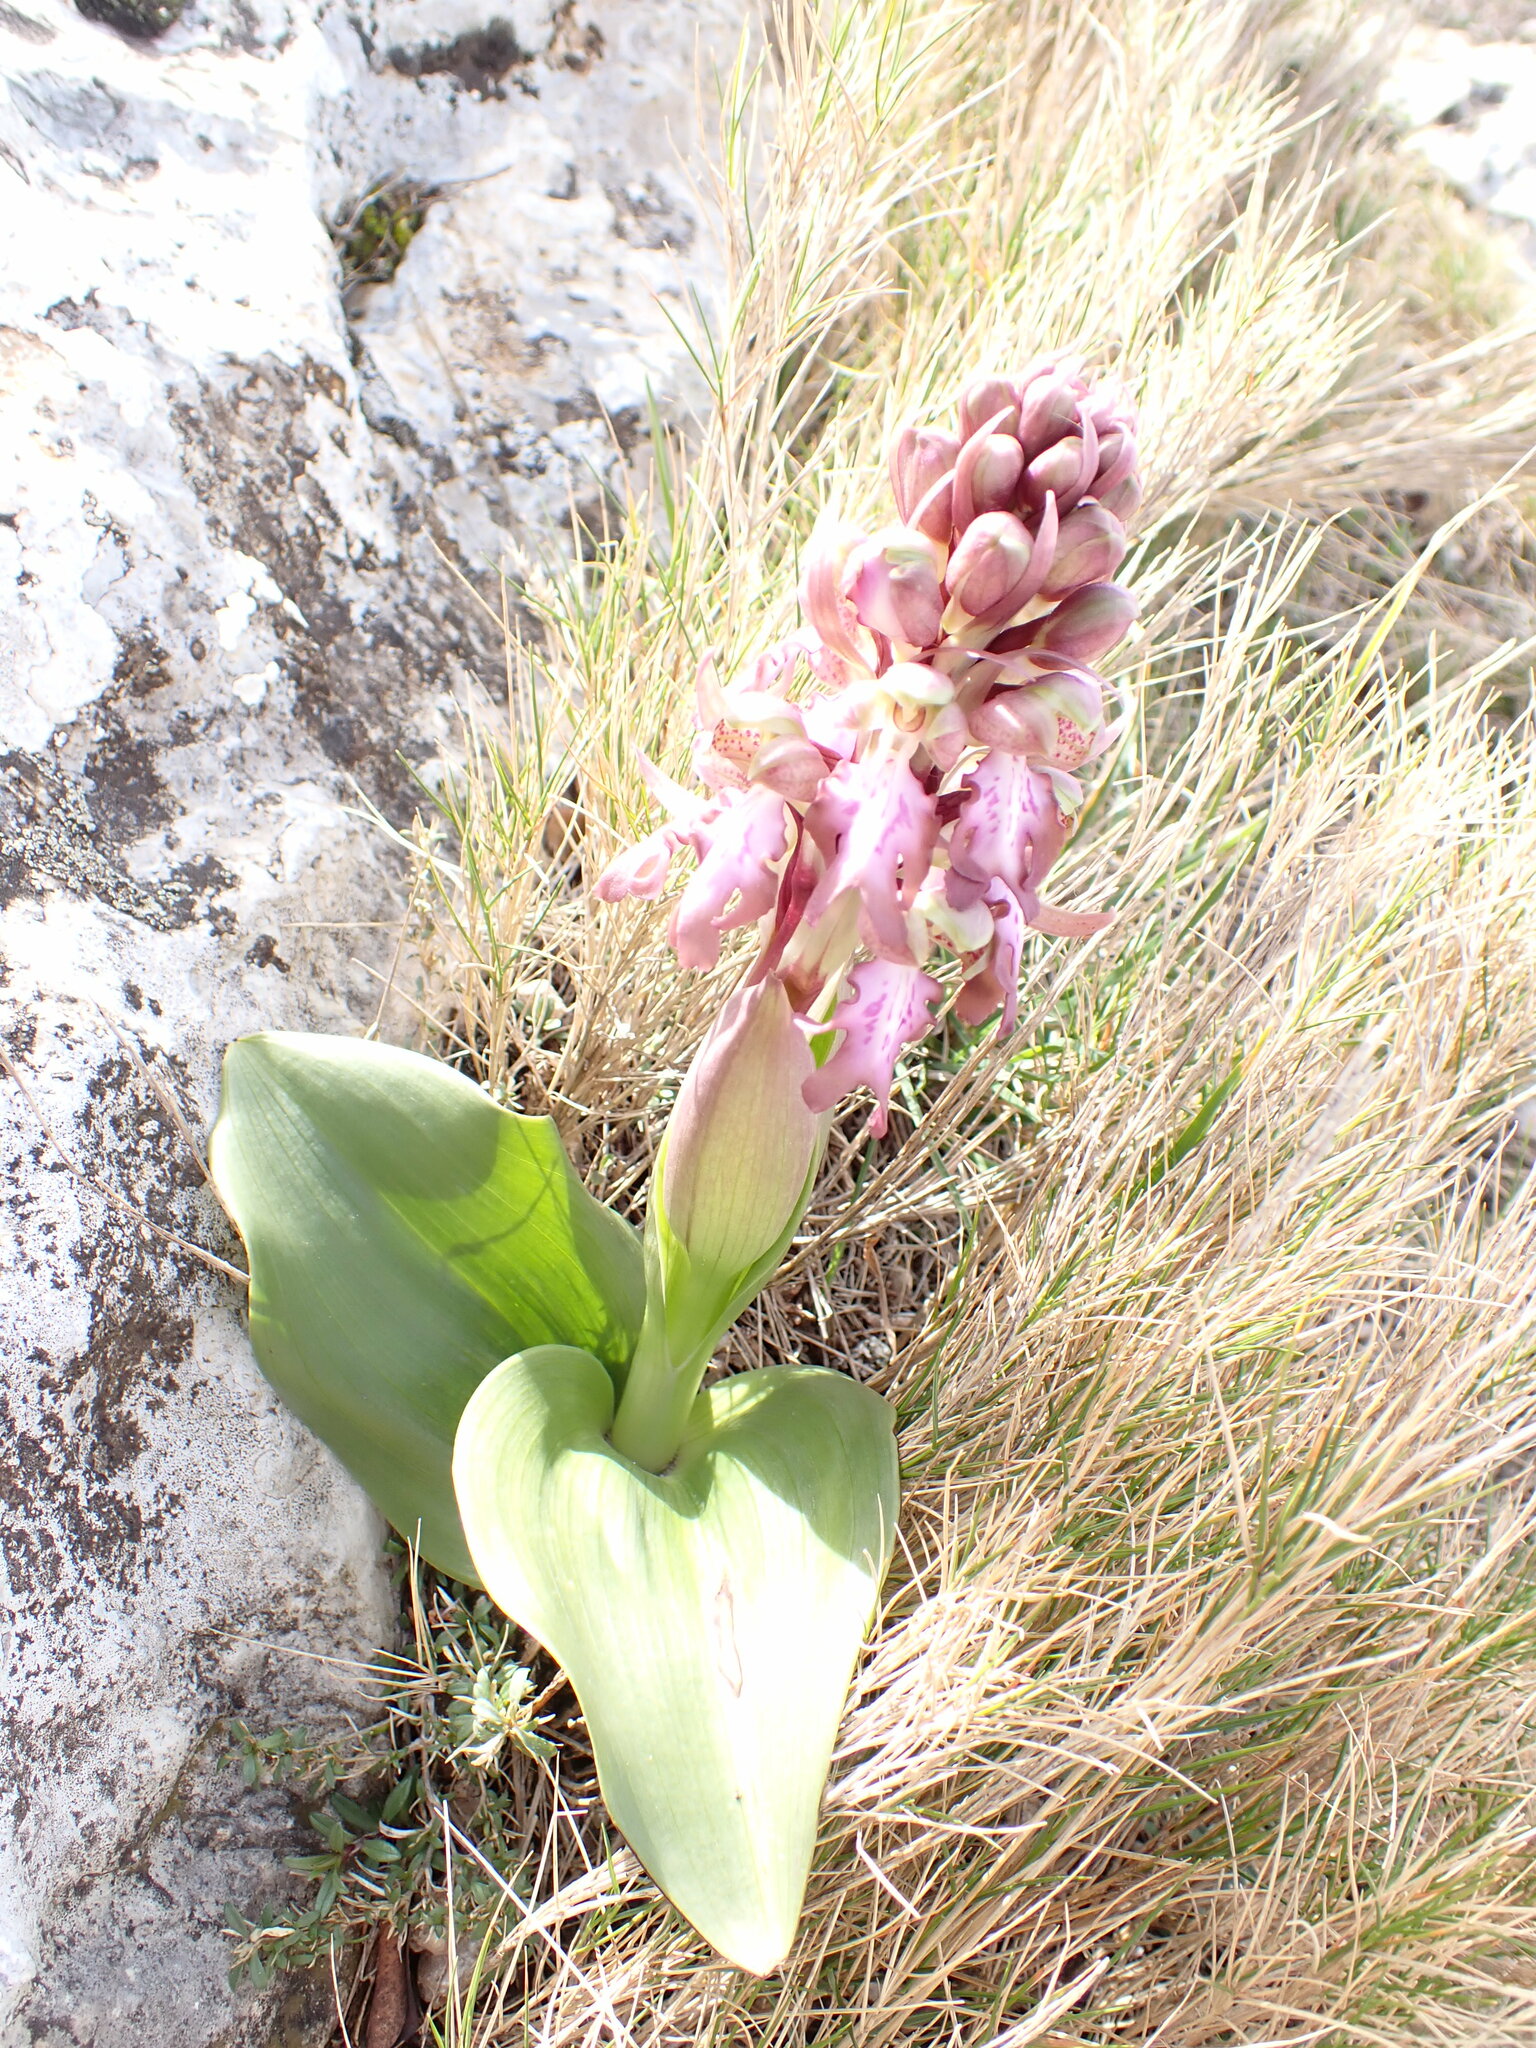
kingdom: Plantae
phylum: Tracheophyta
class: Liliopsida
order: Asparagales
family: Orchidaceae
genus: Himantoglossum
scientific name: Himantoglossum robertianum
